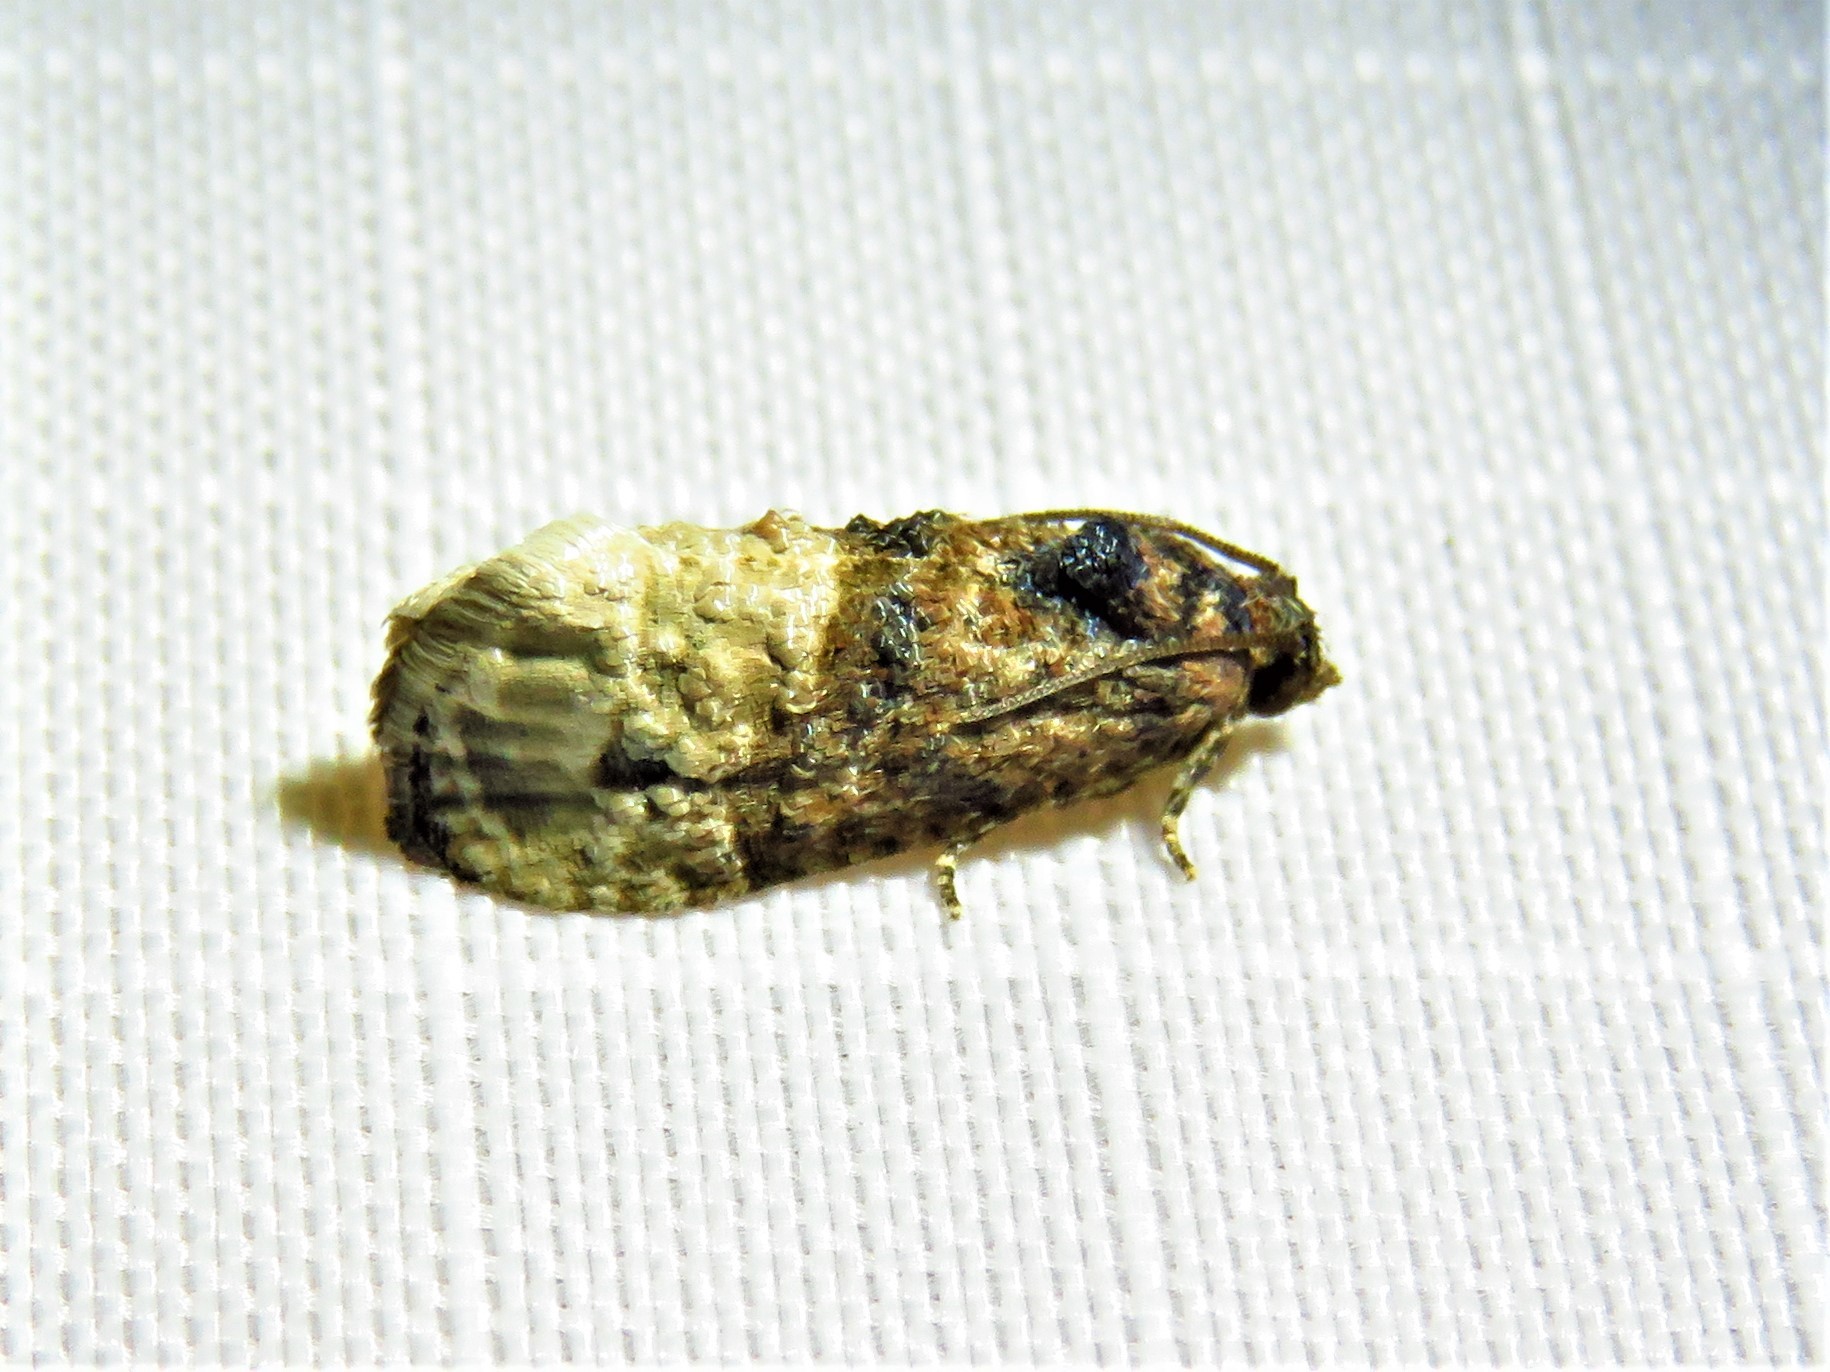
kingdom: Animalia
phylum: Arthropoda
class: Insecta
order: Lepidoptera
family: Tortricidae
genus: Ecdytolopha
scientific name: Ecdytolopha mana
